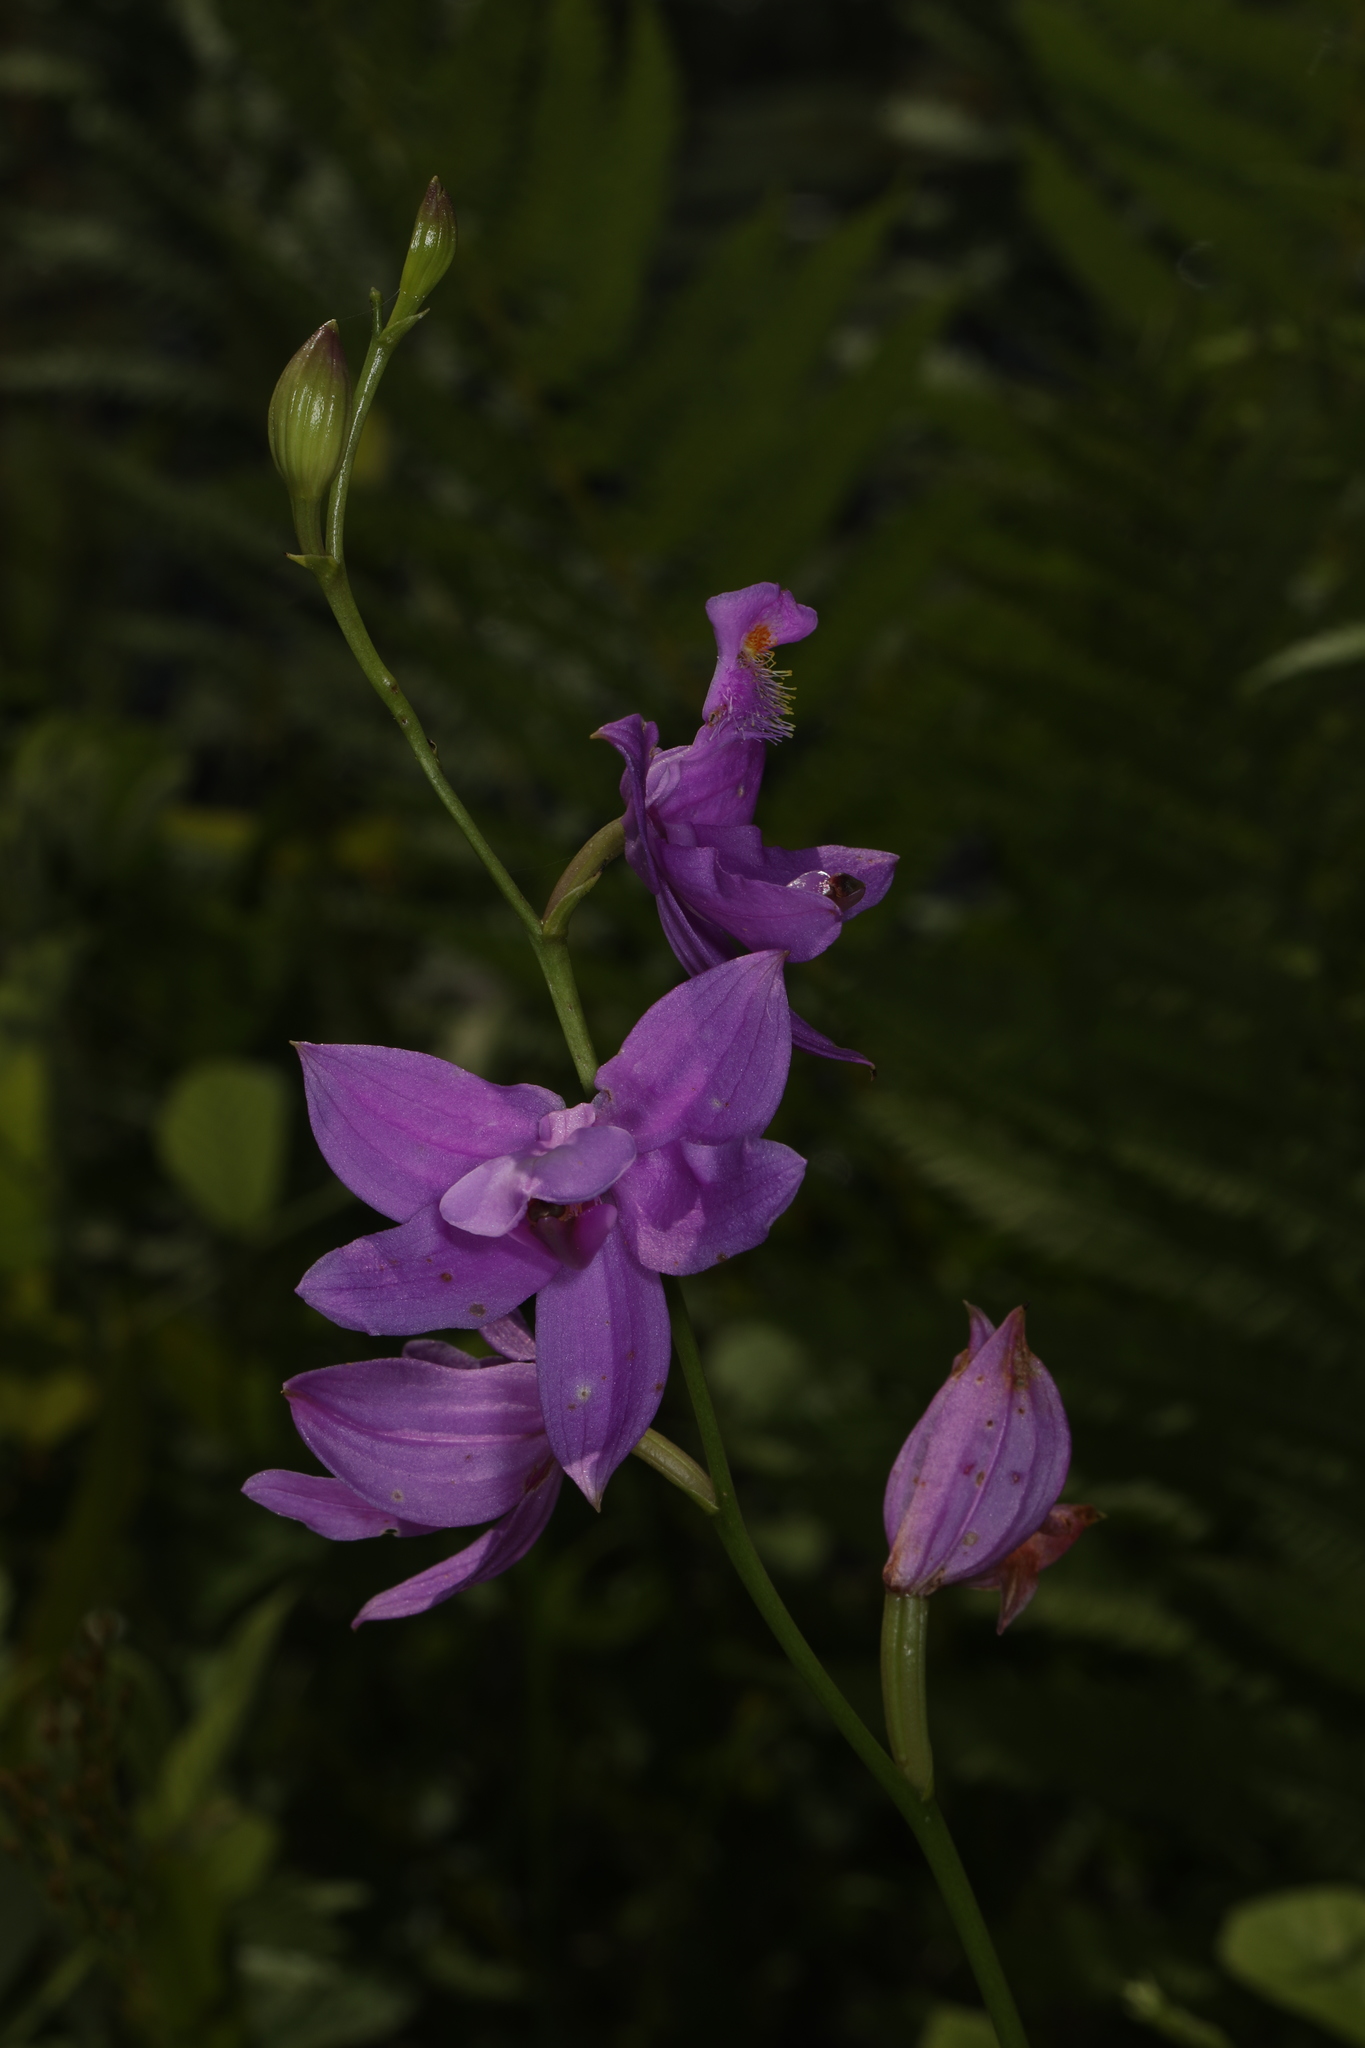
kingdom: Plantae
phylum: Tracheophyta
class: Liliopsida
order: Asparagales
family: Orchidaceae
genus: Calopogon
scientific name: Calopogon tuberosus
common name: Grass-pink
